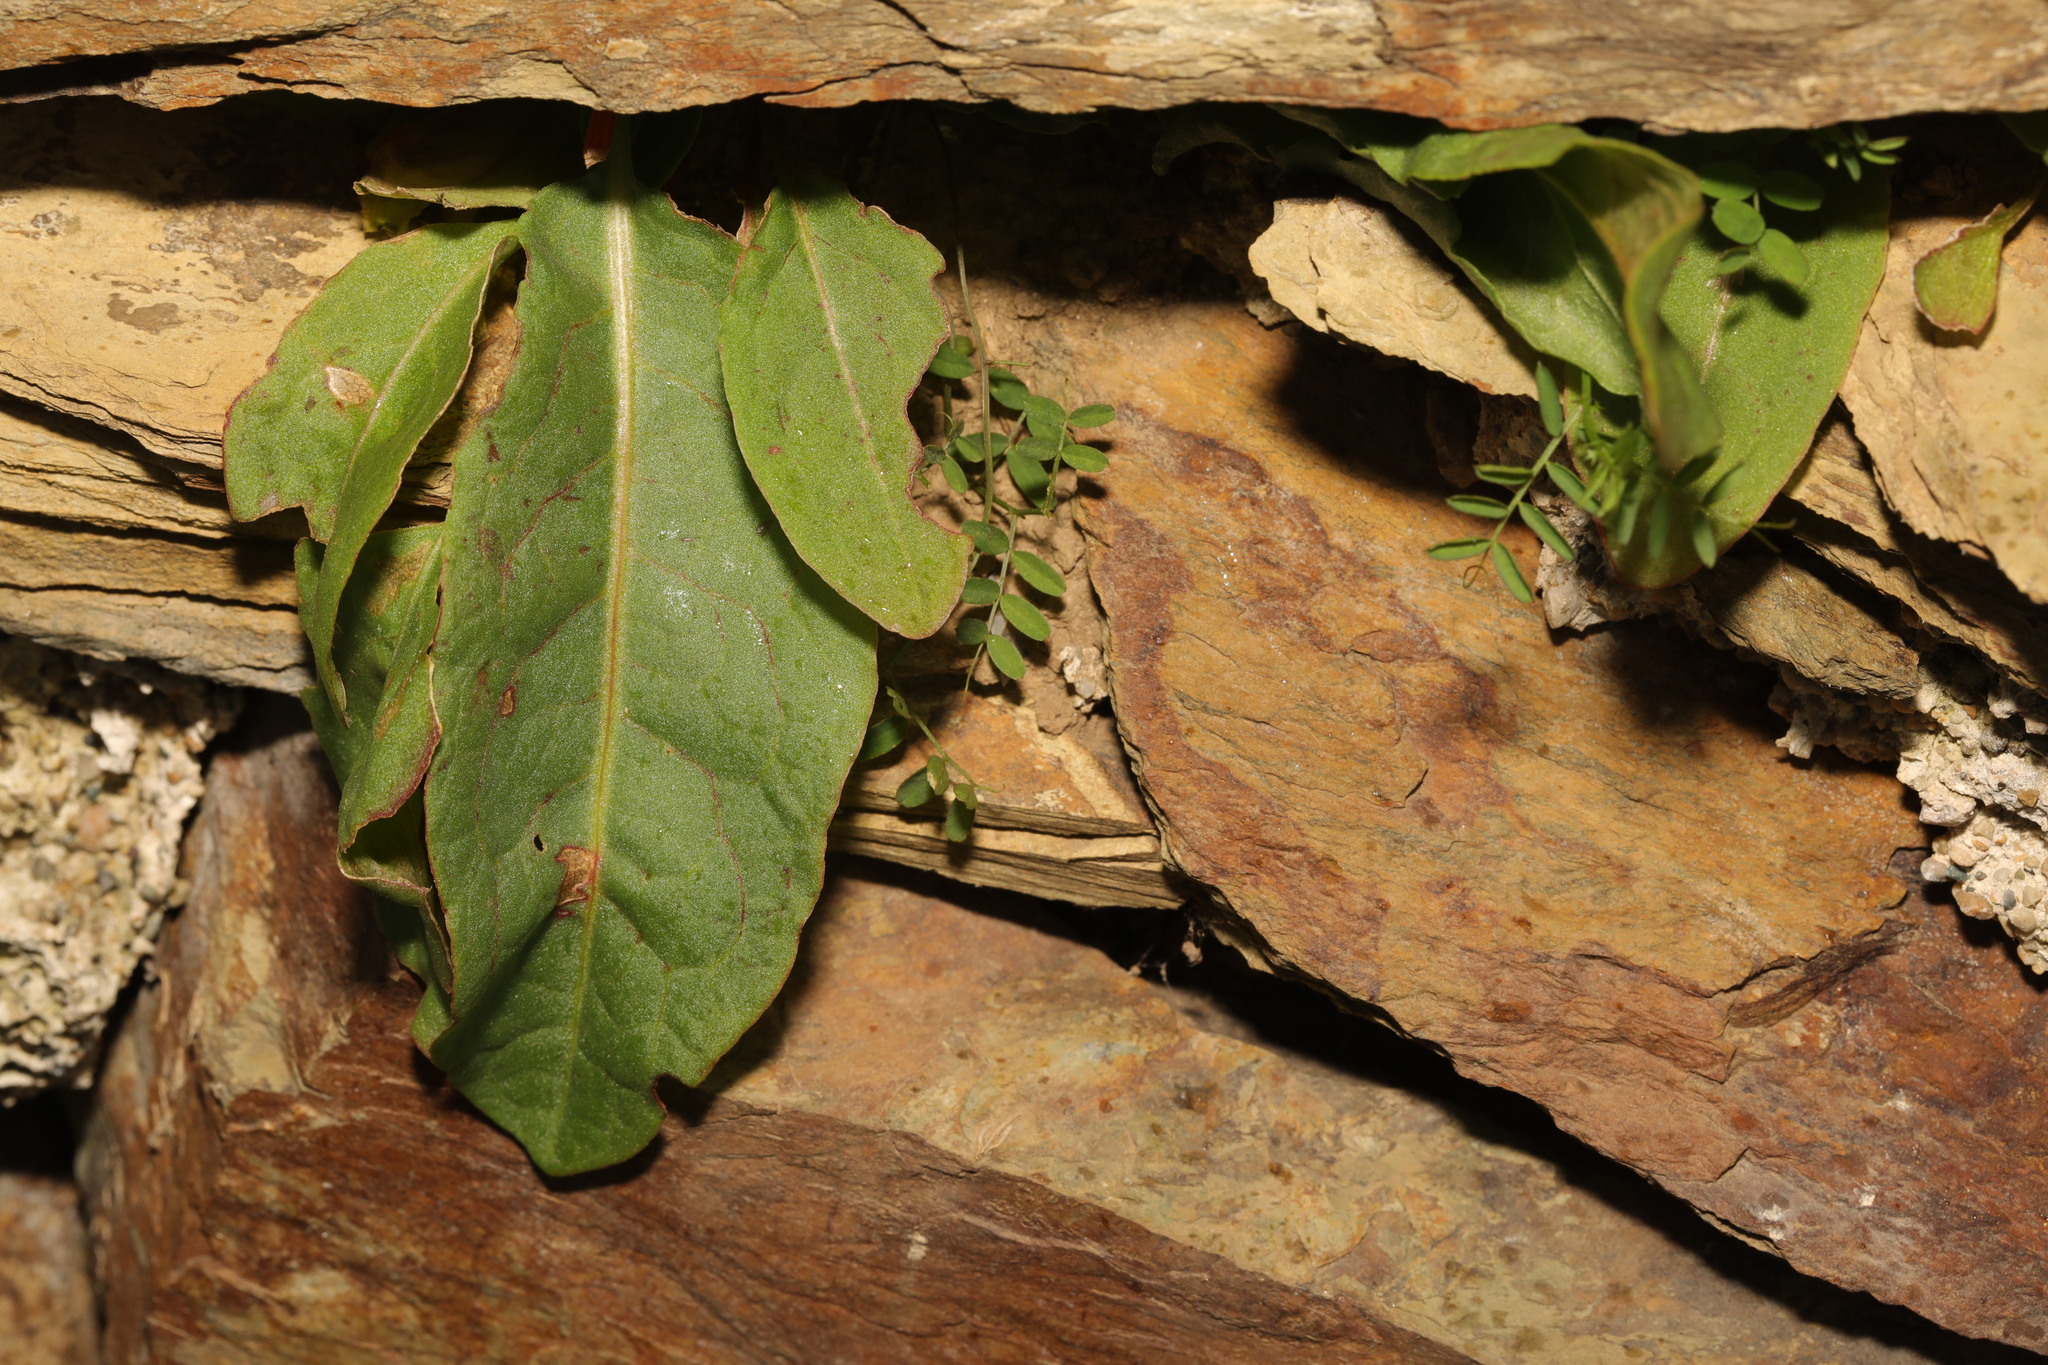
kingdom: Plantae
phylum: Tracheophyta
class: Magnoliopsida
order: Caryophyllales
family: Polygonaceae
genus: Rumex
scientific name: Rumex acetosa
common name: Garden sorrel
